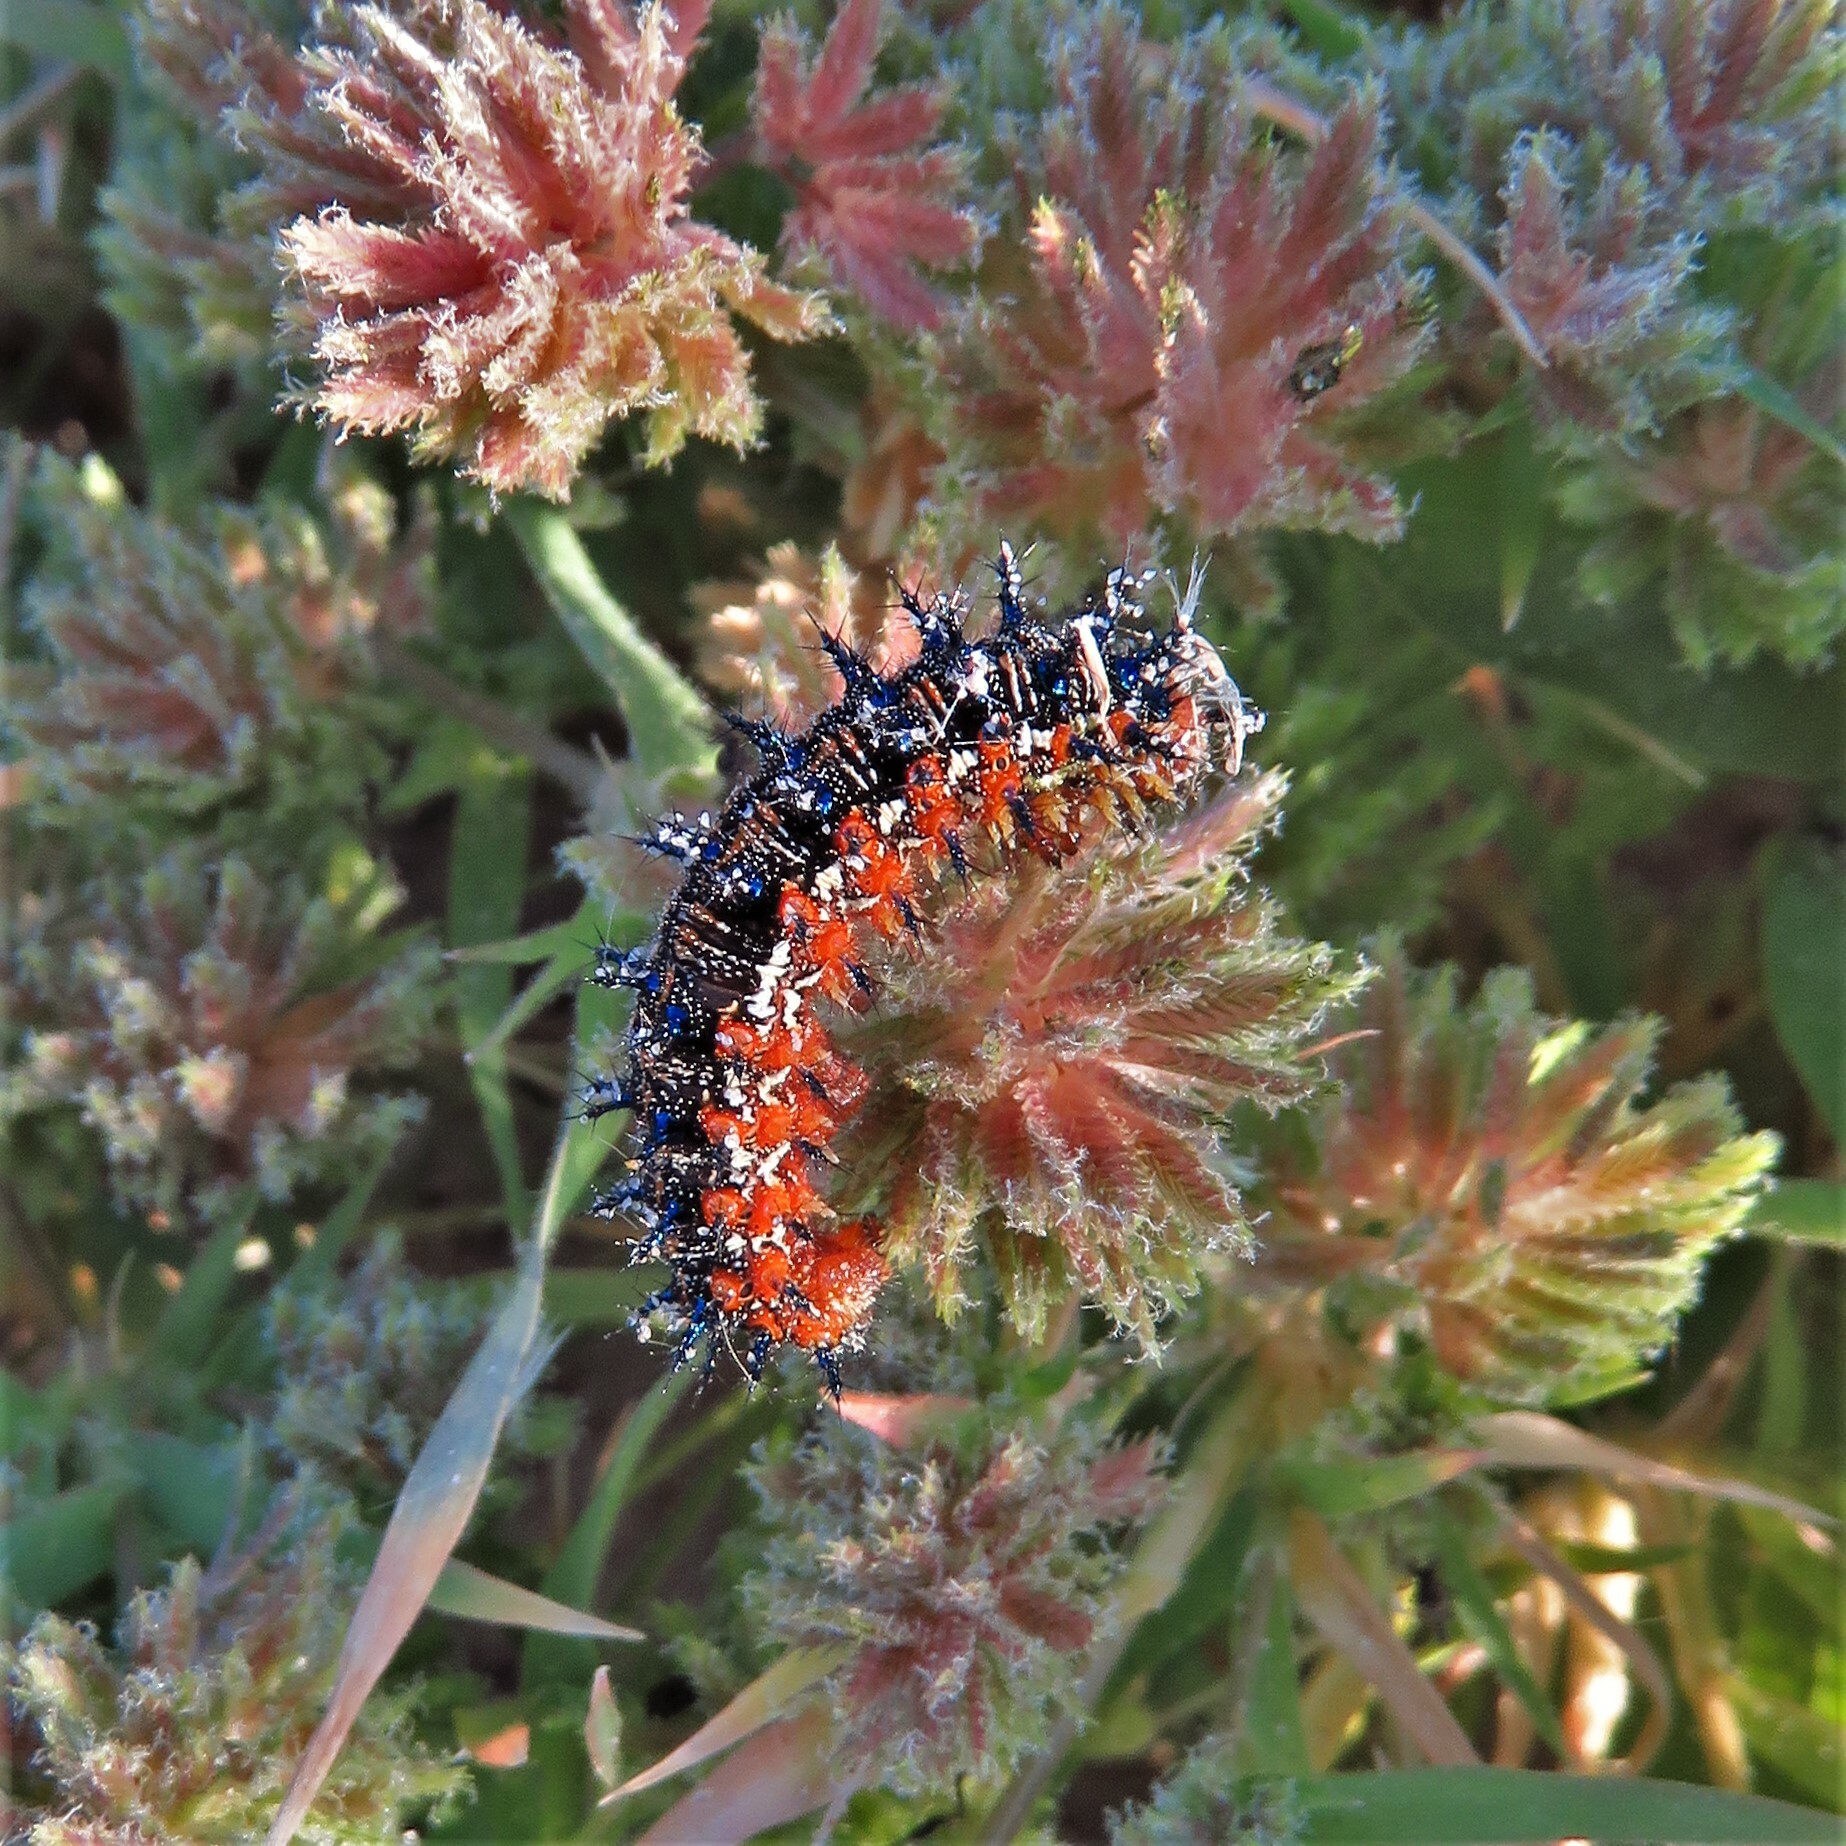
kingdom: Animalia
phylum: Arthropoda
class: Insecta
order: Lepidoptera
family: Nymphalidae
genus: Junonia
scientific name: Junonia coenia
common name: Common buckeye
